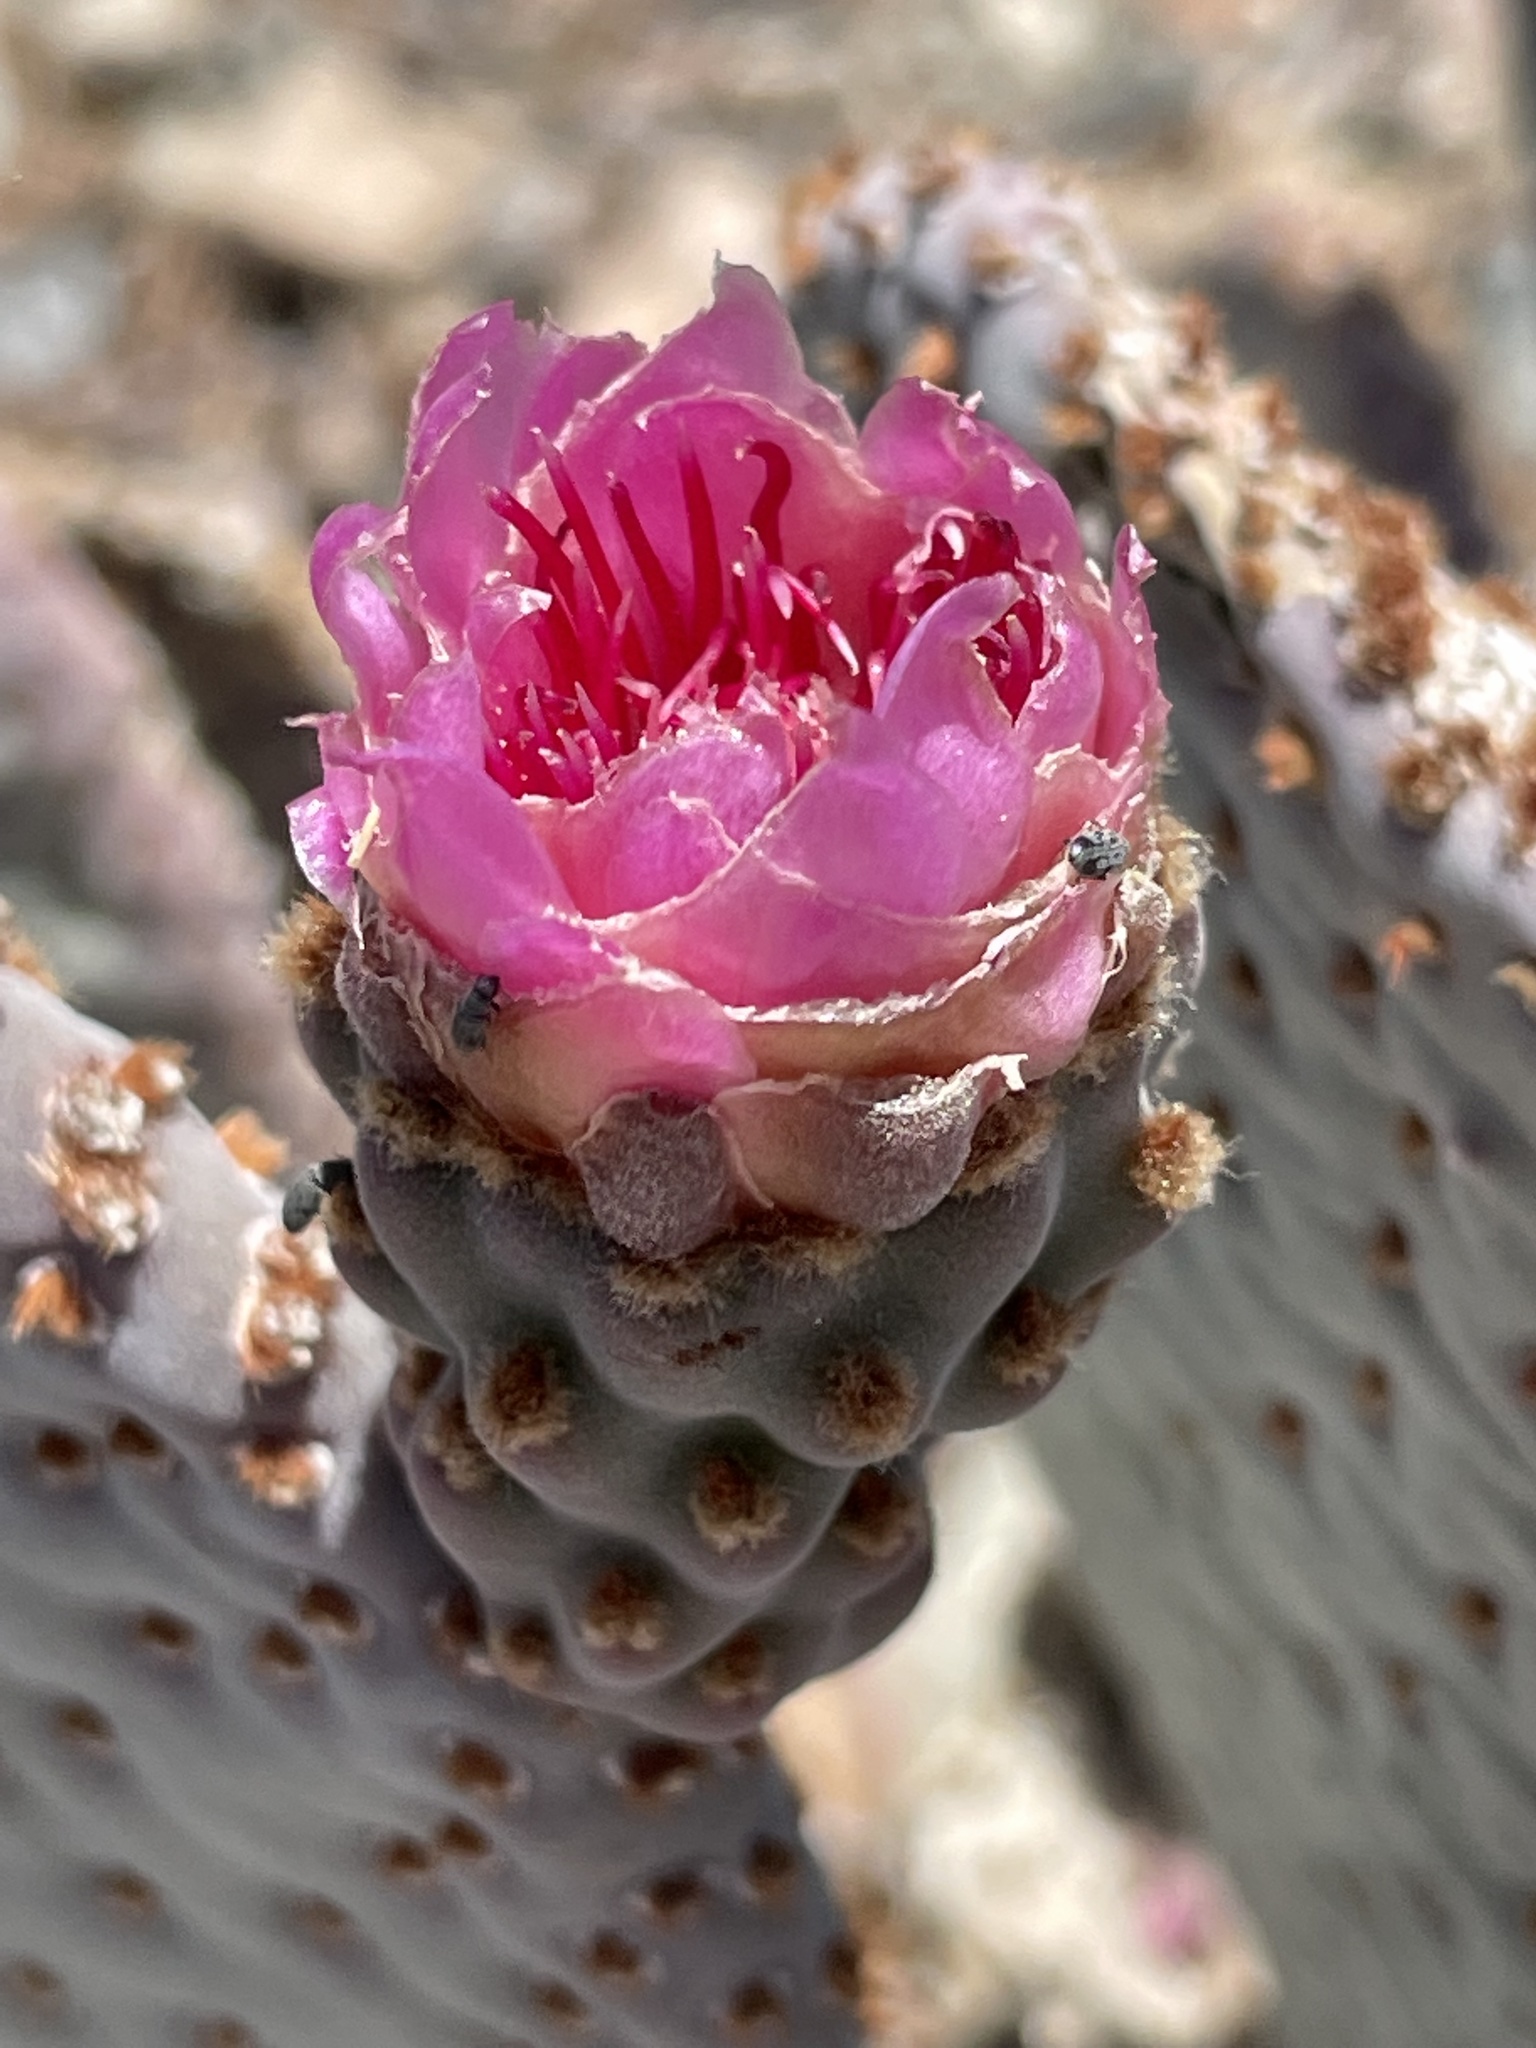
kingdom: Plantae
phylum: Tracheophyta
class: Magnoliopsida
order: Caryophyllales
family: Cactaceae
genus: Opuntia
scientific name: Opuntia basilaris
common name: Beavertail prickly-pear
